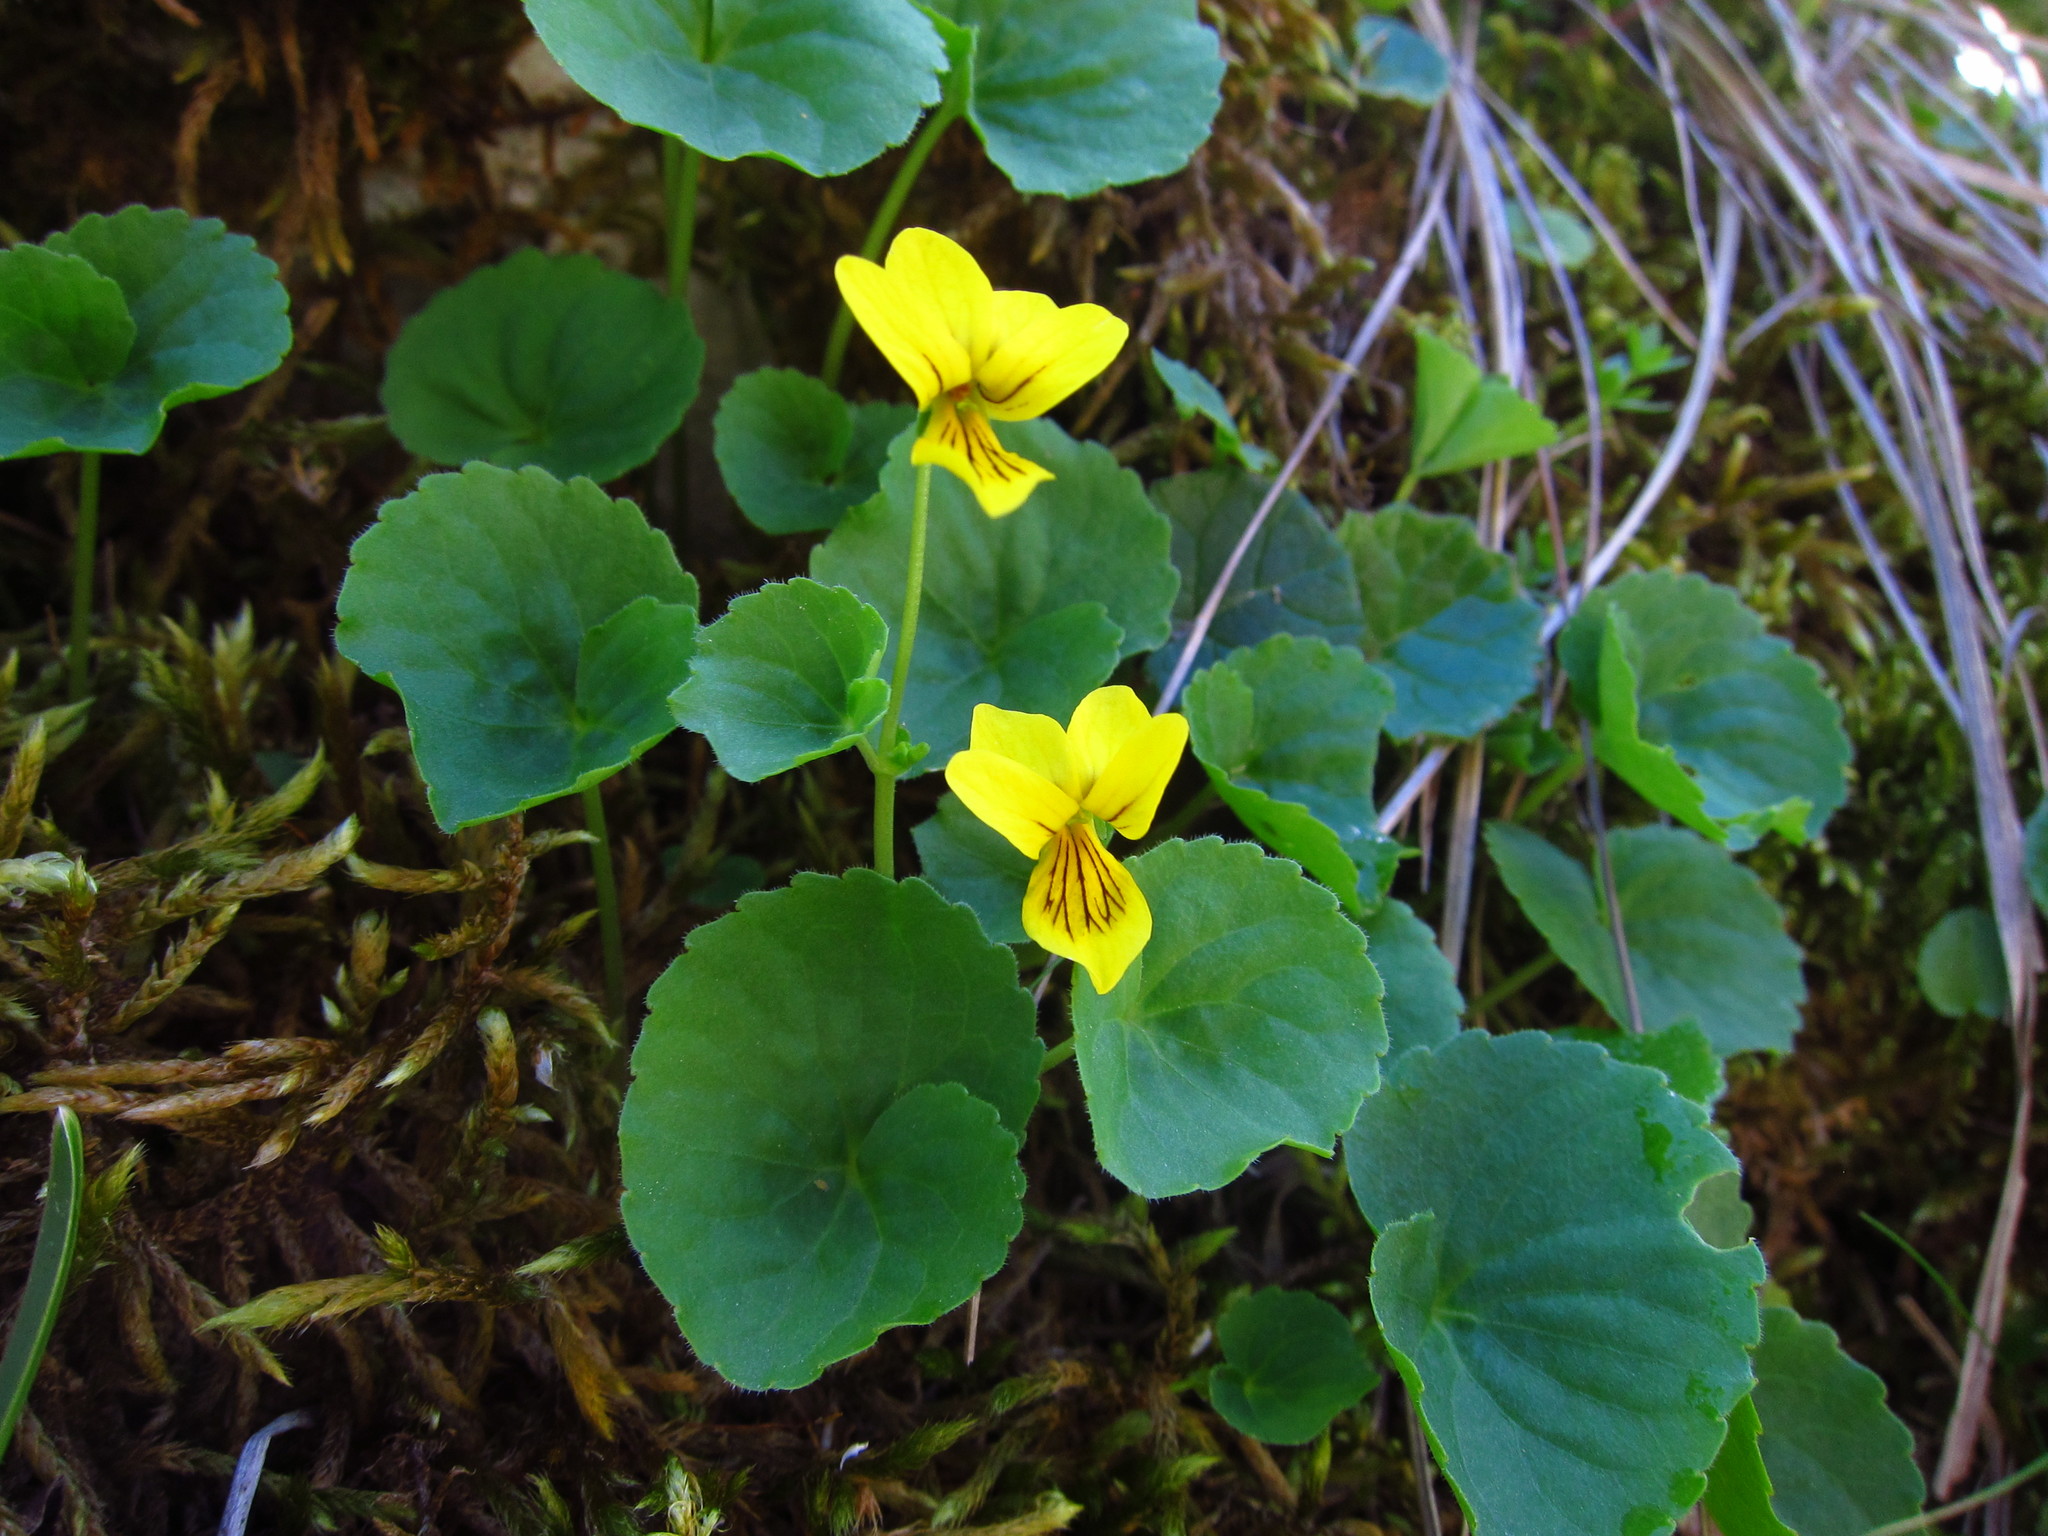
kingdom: Plantae
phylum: Tracheophyta
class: Magnoliopsida
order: Malpighiales
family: Violaceae
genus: Viola
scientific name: Viola biflora
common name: Alpine yellow violet
